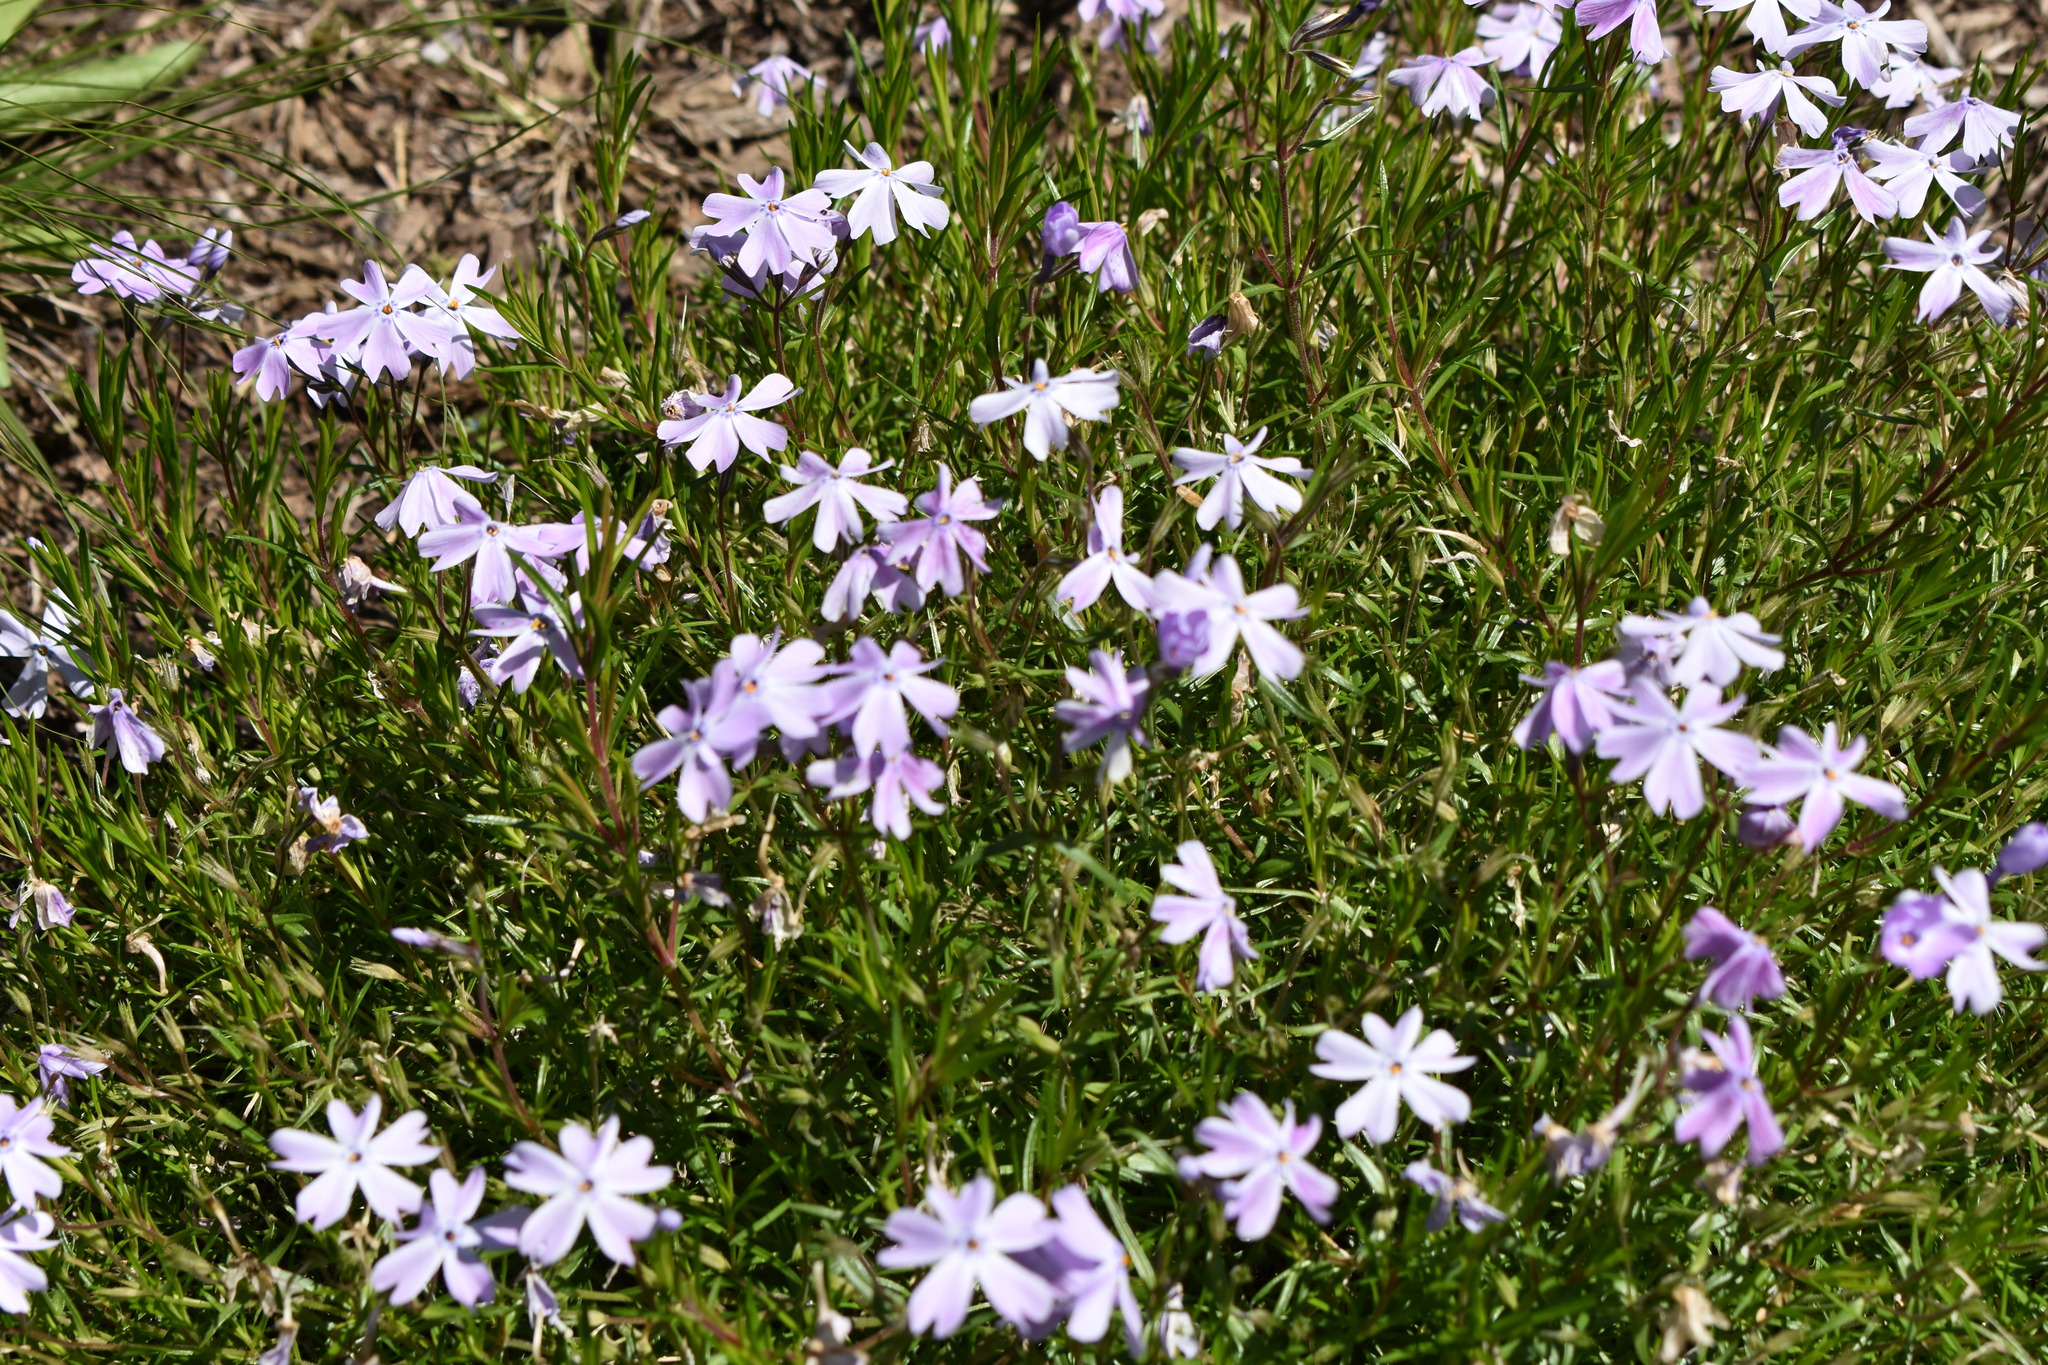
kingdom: Plantae
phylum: Tracheophyta
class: Magnoliopsida
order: Ericales
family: Polemoniaceae
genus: Phlox
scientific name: Phlox subulata
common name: Moss phlox
